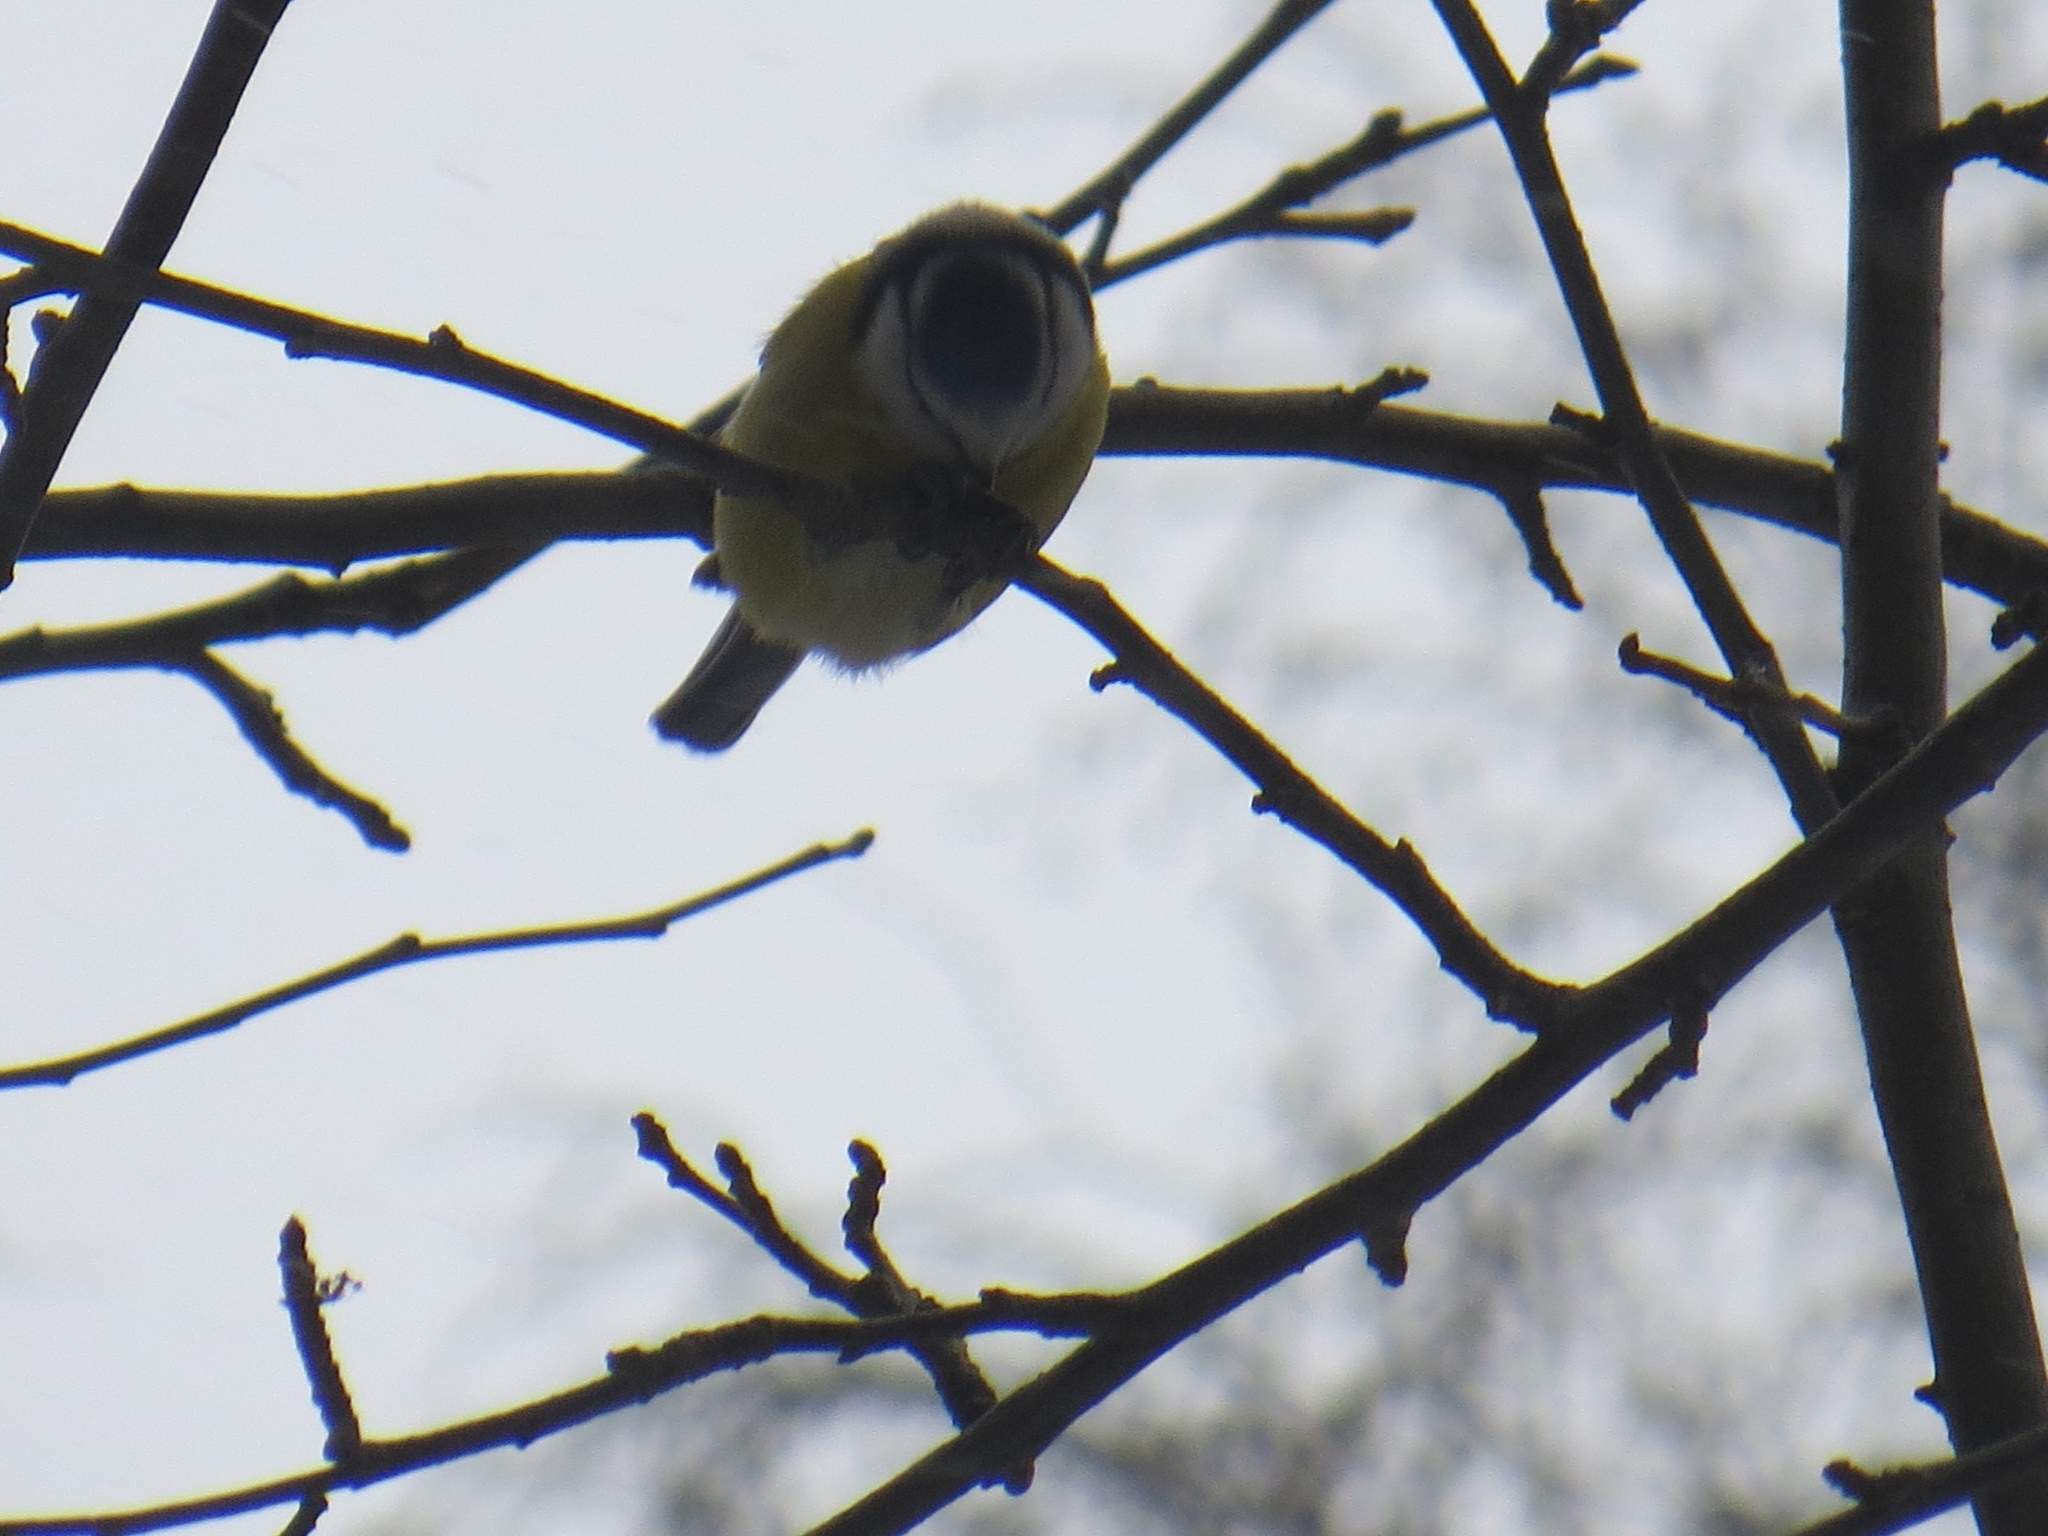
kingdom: Animalia
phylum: Chordata
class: Aves
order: Passeriformes
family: Paridae
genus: Cyanistes
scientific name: Cyanistes caeruleus
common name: Eurasian blue tit
